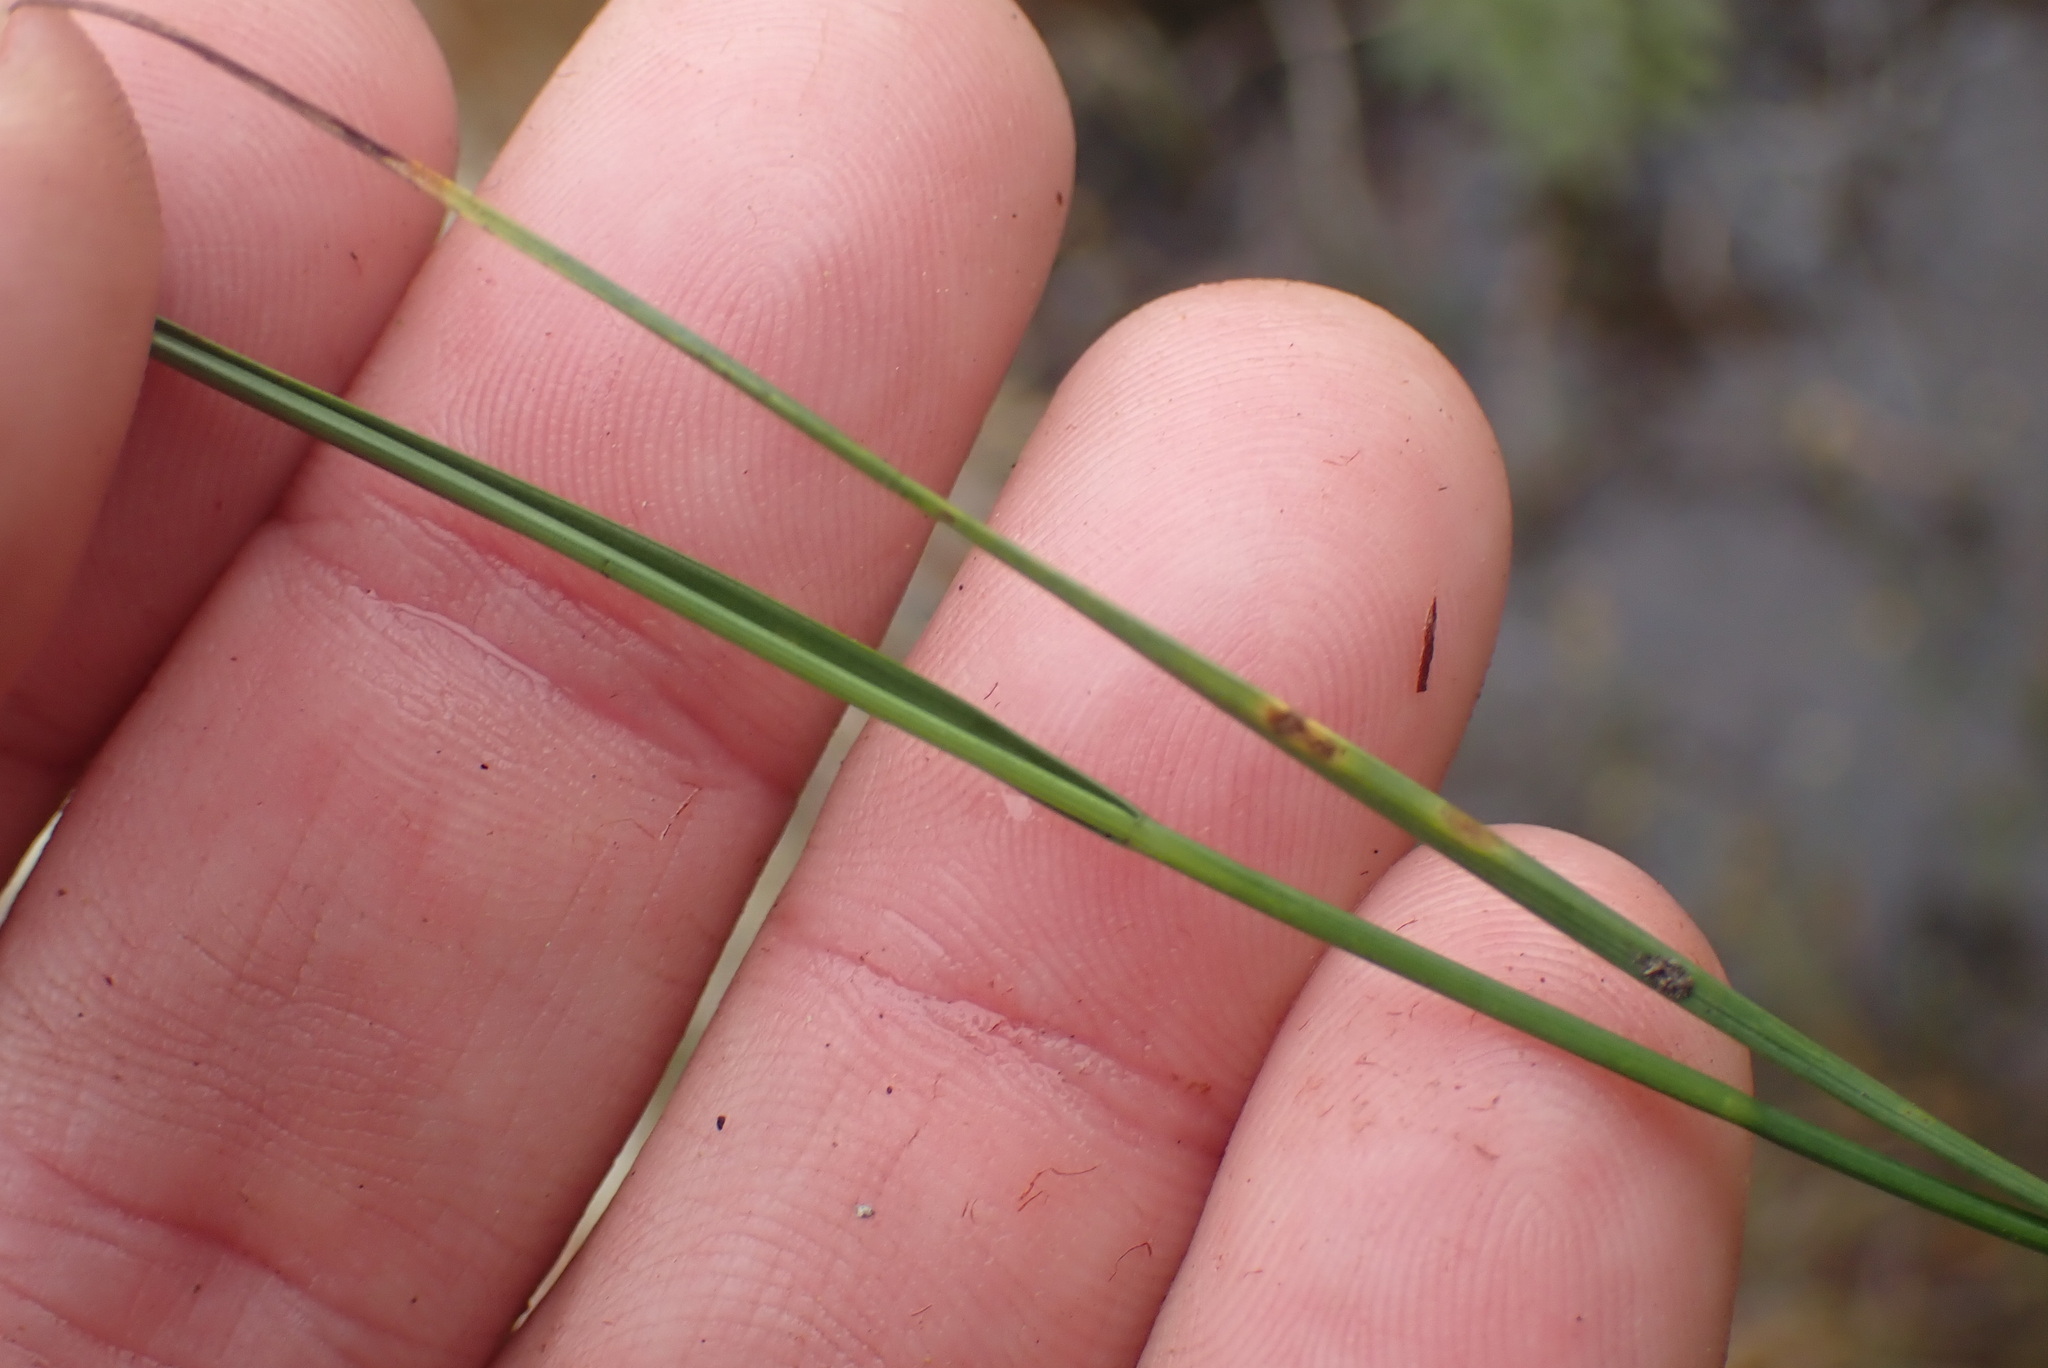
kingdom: Plantae
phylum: Tracheophyta
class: Liliopsida
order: Poales
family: Cyperaceae
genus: Rhynchospora
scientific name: Rhynchospora alba
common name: White beak-sedge
